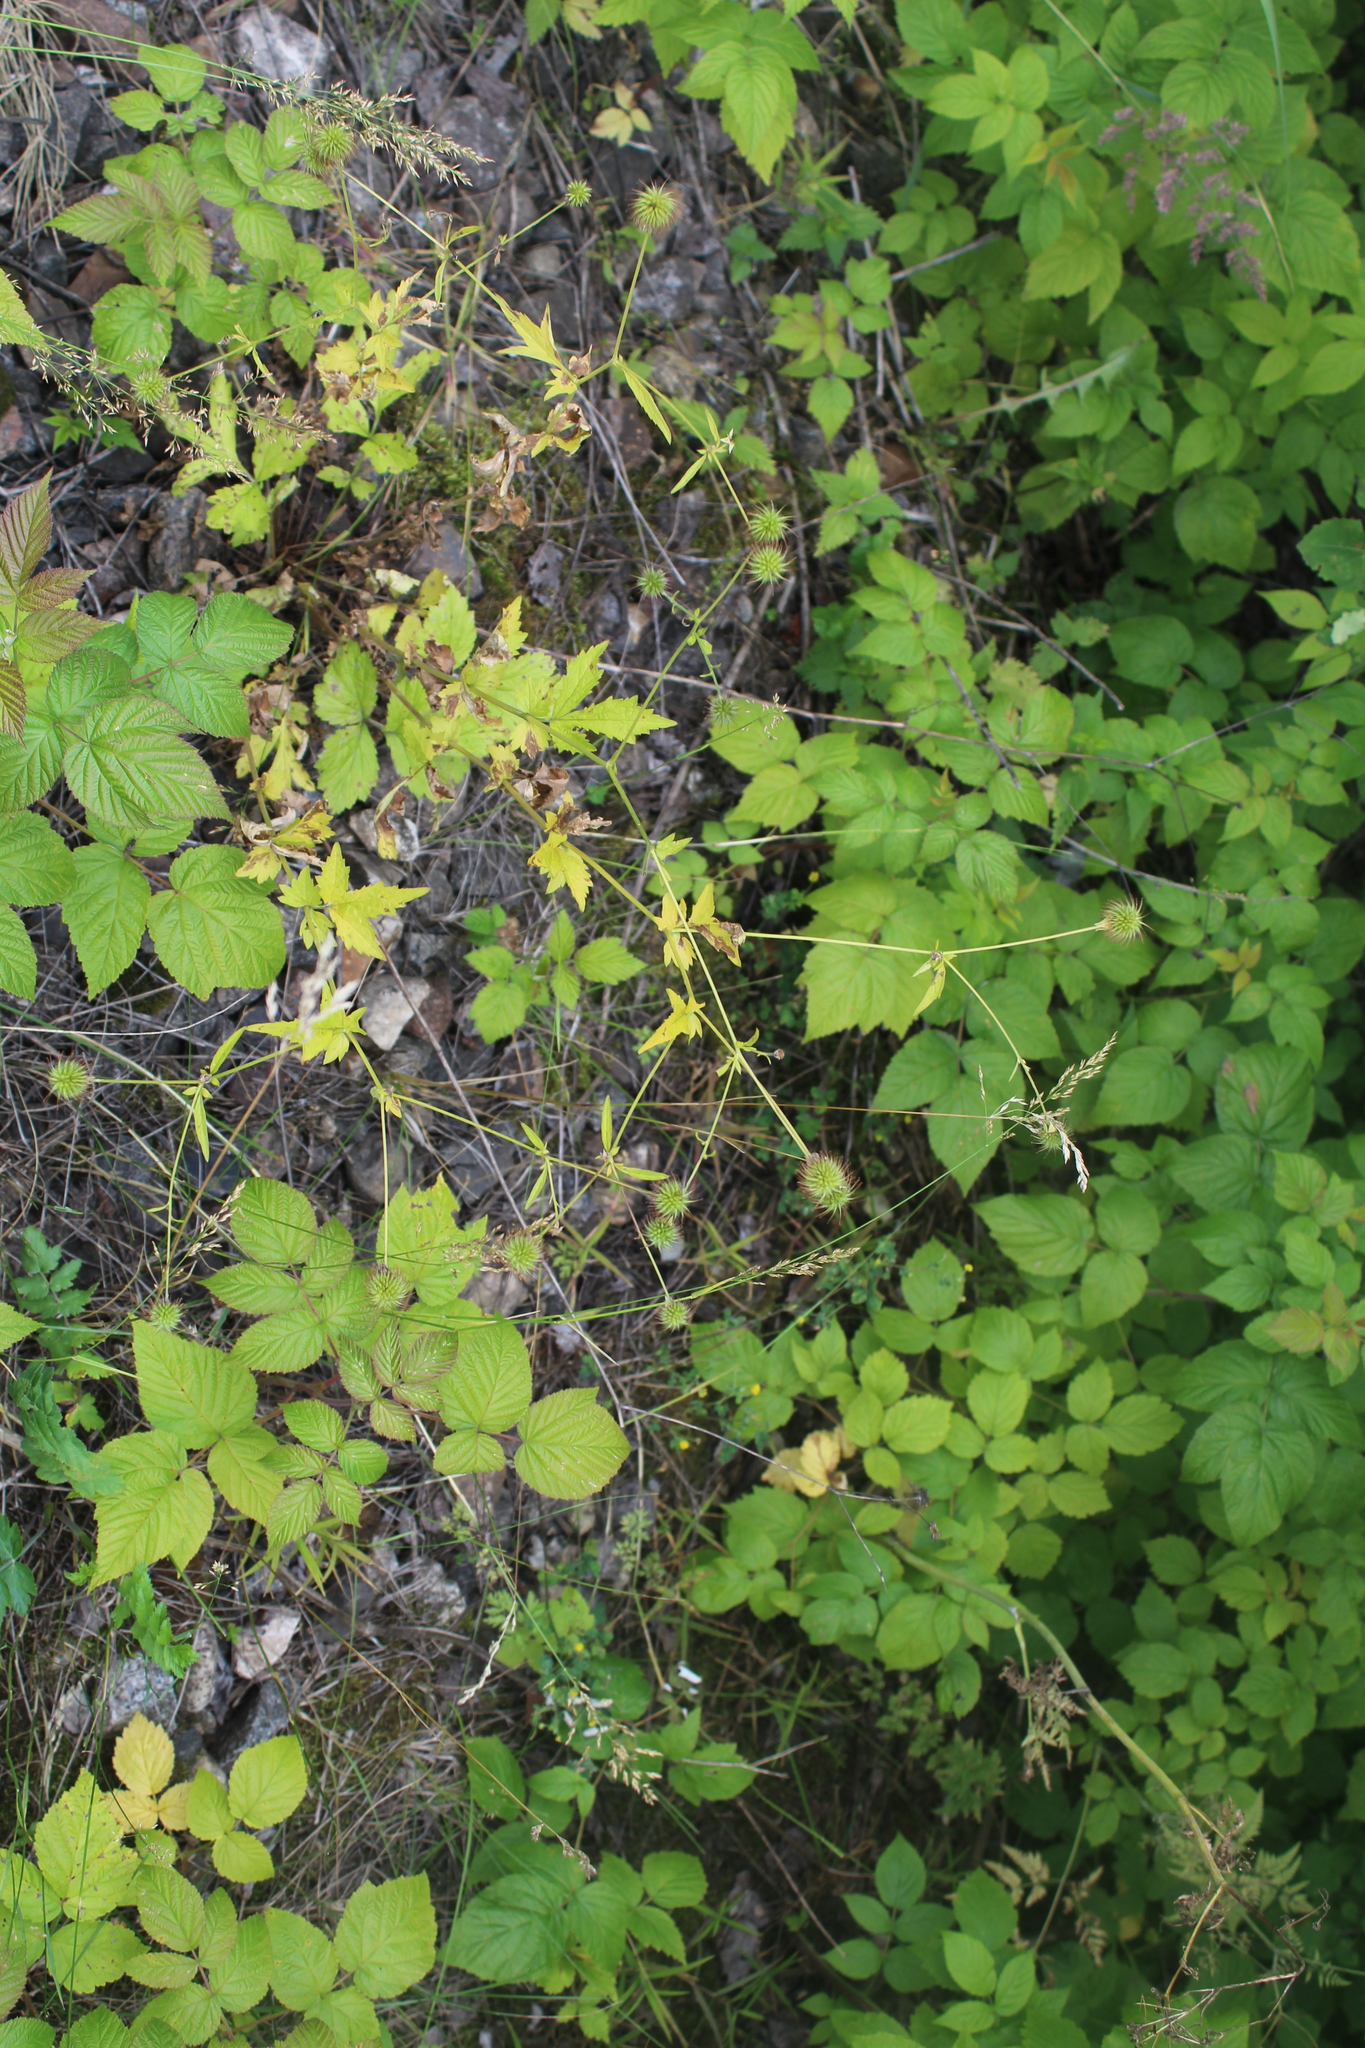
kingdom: Plantae
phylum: Tracheophyta
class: Magnoliopsida
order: Rosales
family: Rosaceae
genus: Geum
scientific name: Geum urbanum
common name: Wood avens
